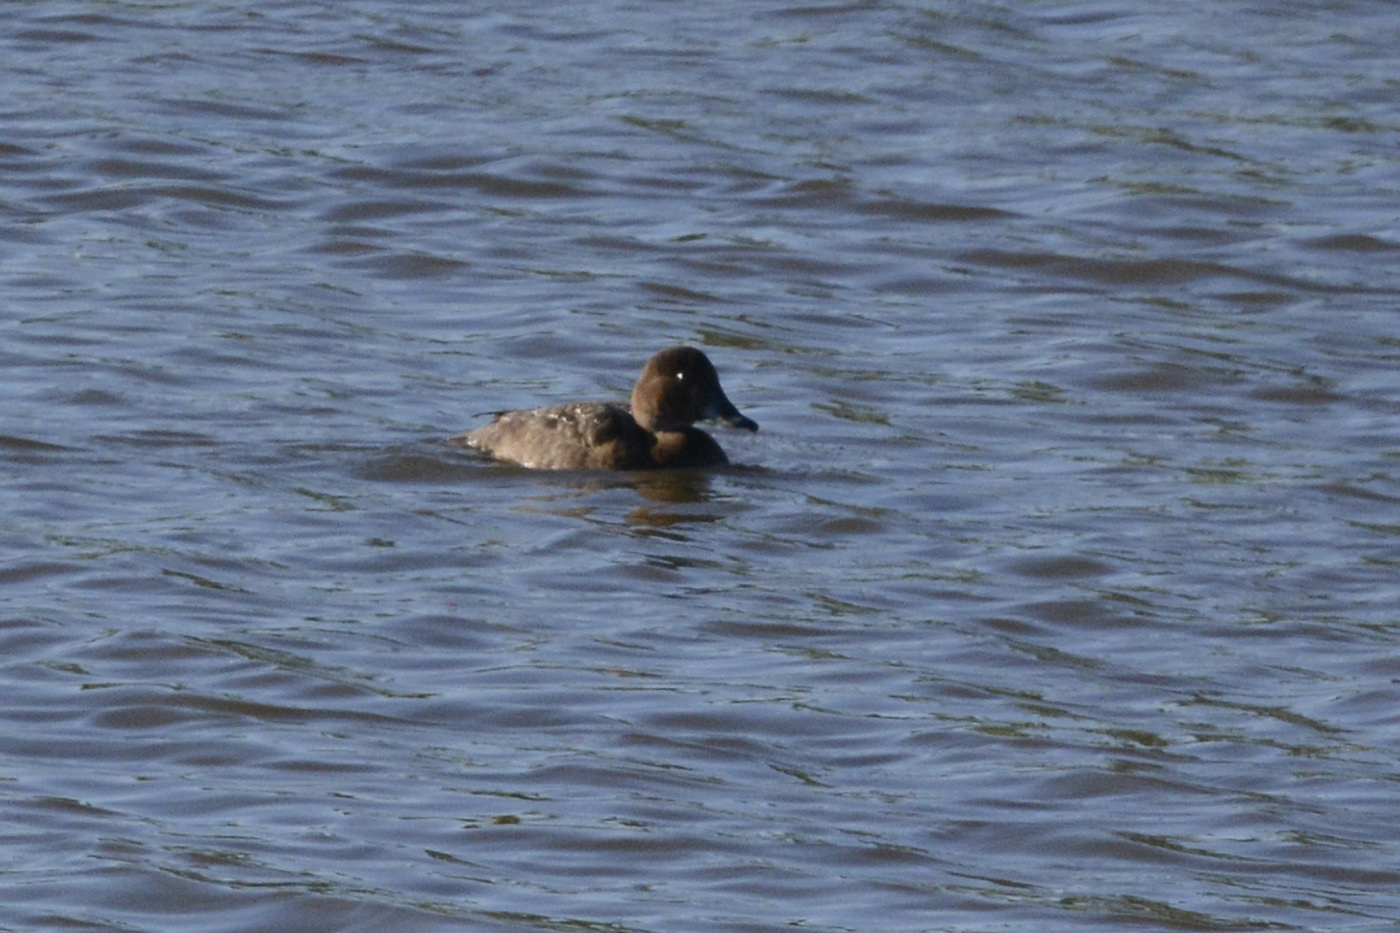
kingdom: Animalia
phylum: Chordata
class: Aves
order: Anseriformes
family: Anatidae
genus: Aythya
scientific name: Aythya australis
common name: Hardhead
